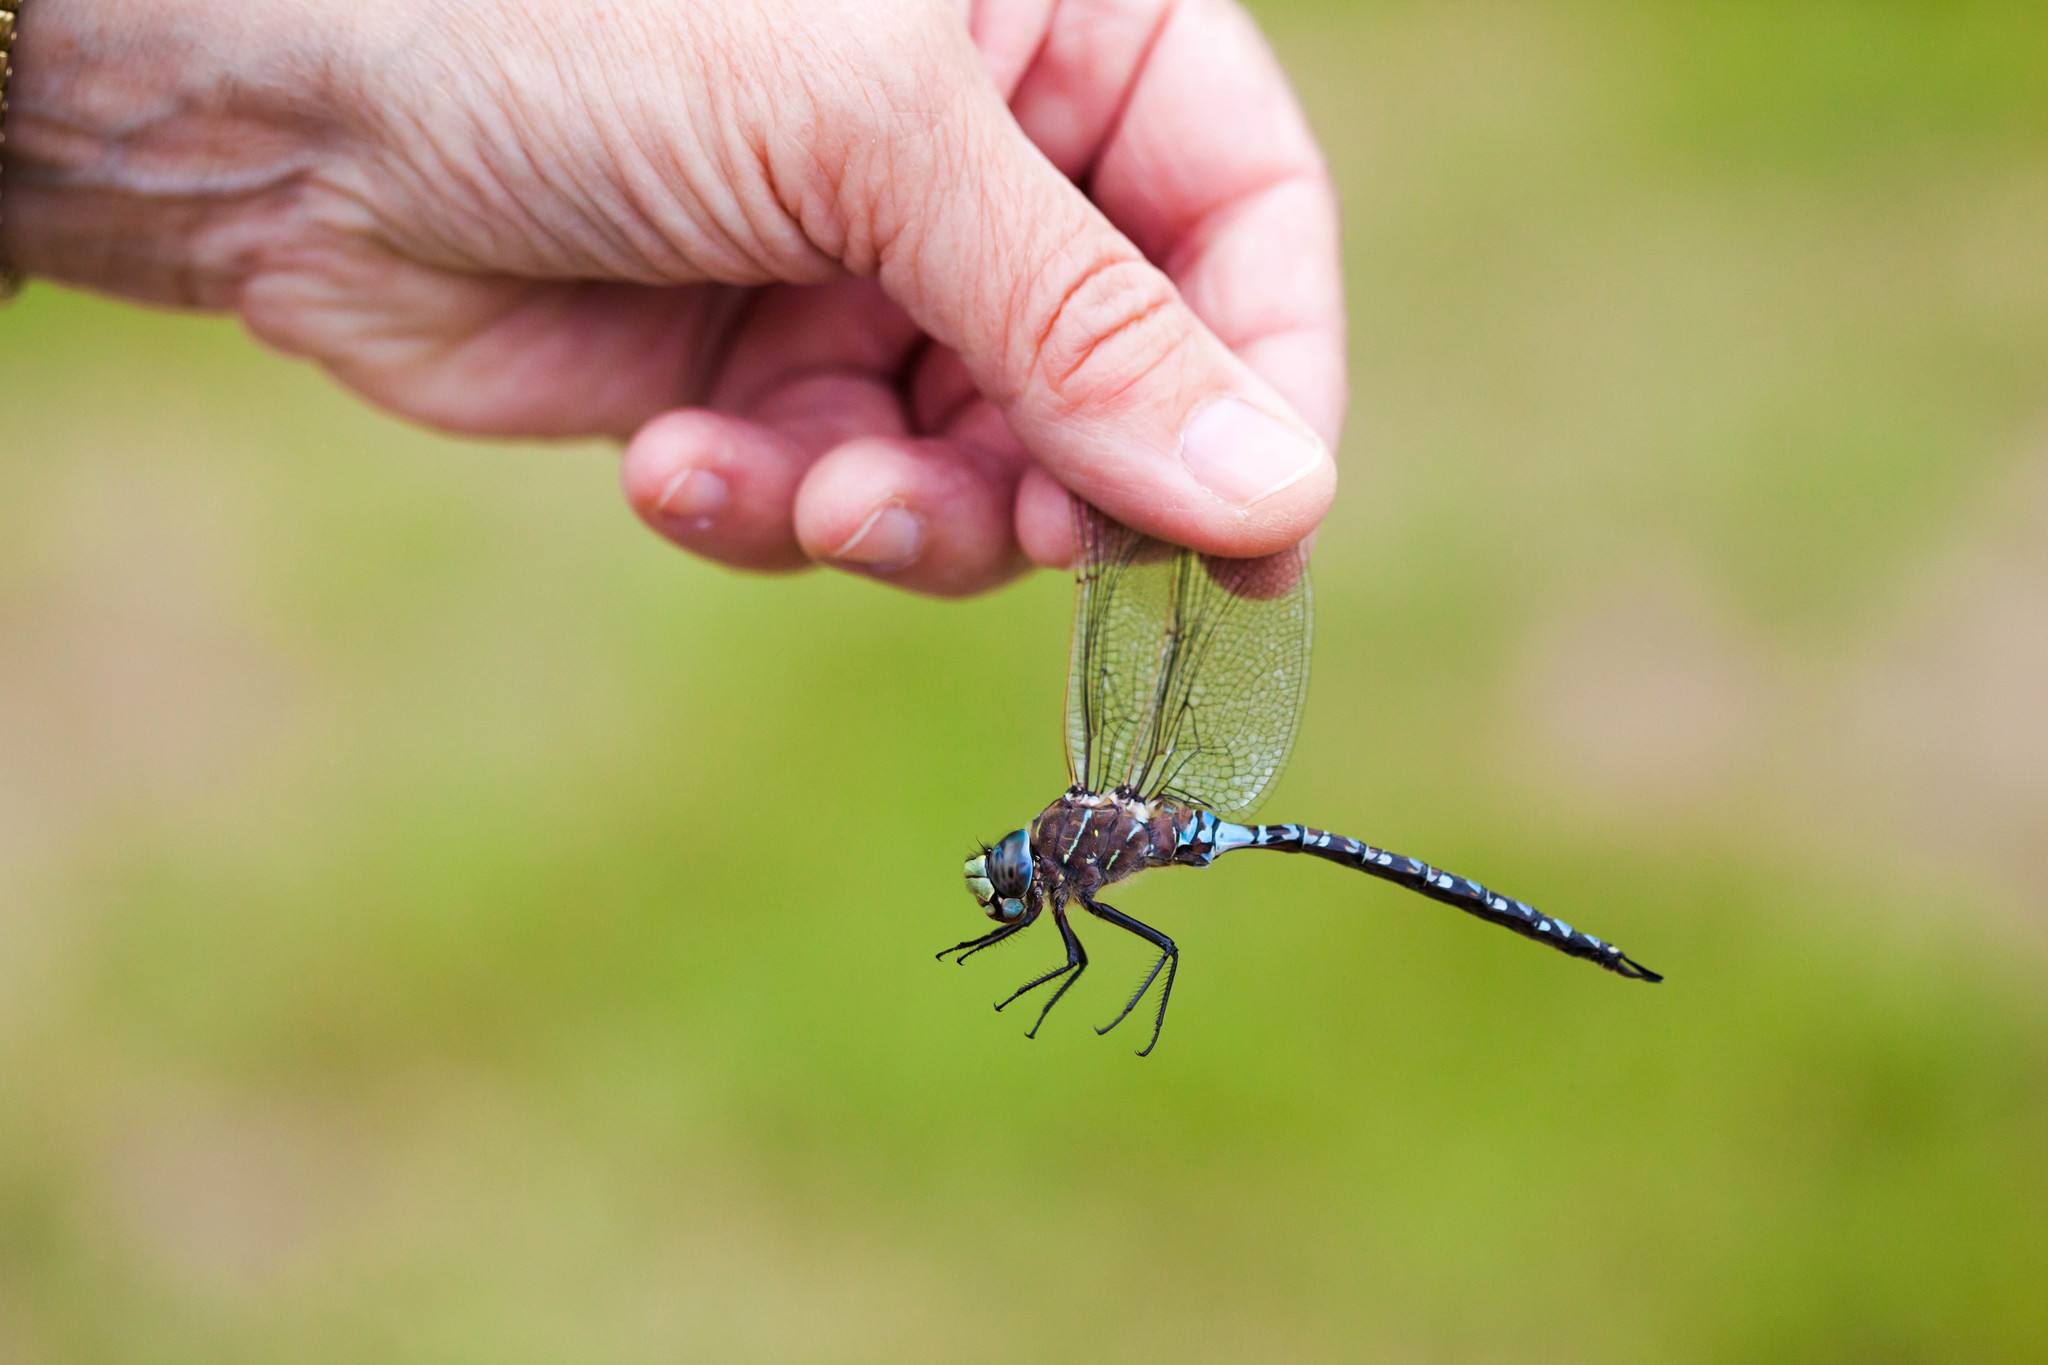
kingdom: Animalia
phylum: Arthropoda
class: Insecta
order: Odonata
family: Aeshnidae
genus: Aeshna
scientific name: Aeshna interrupta
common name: Variable darner
